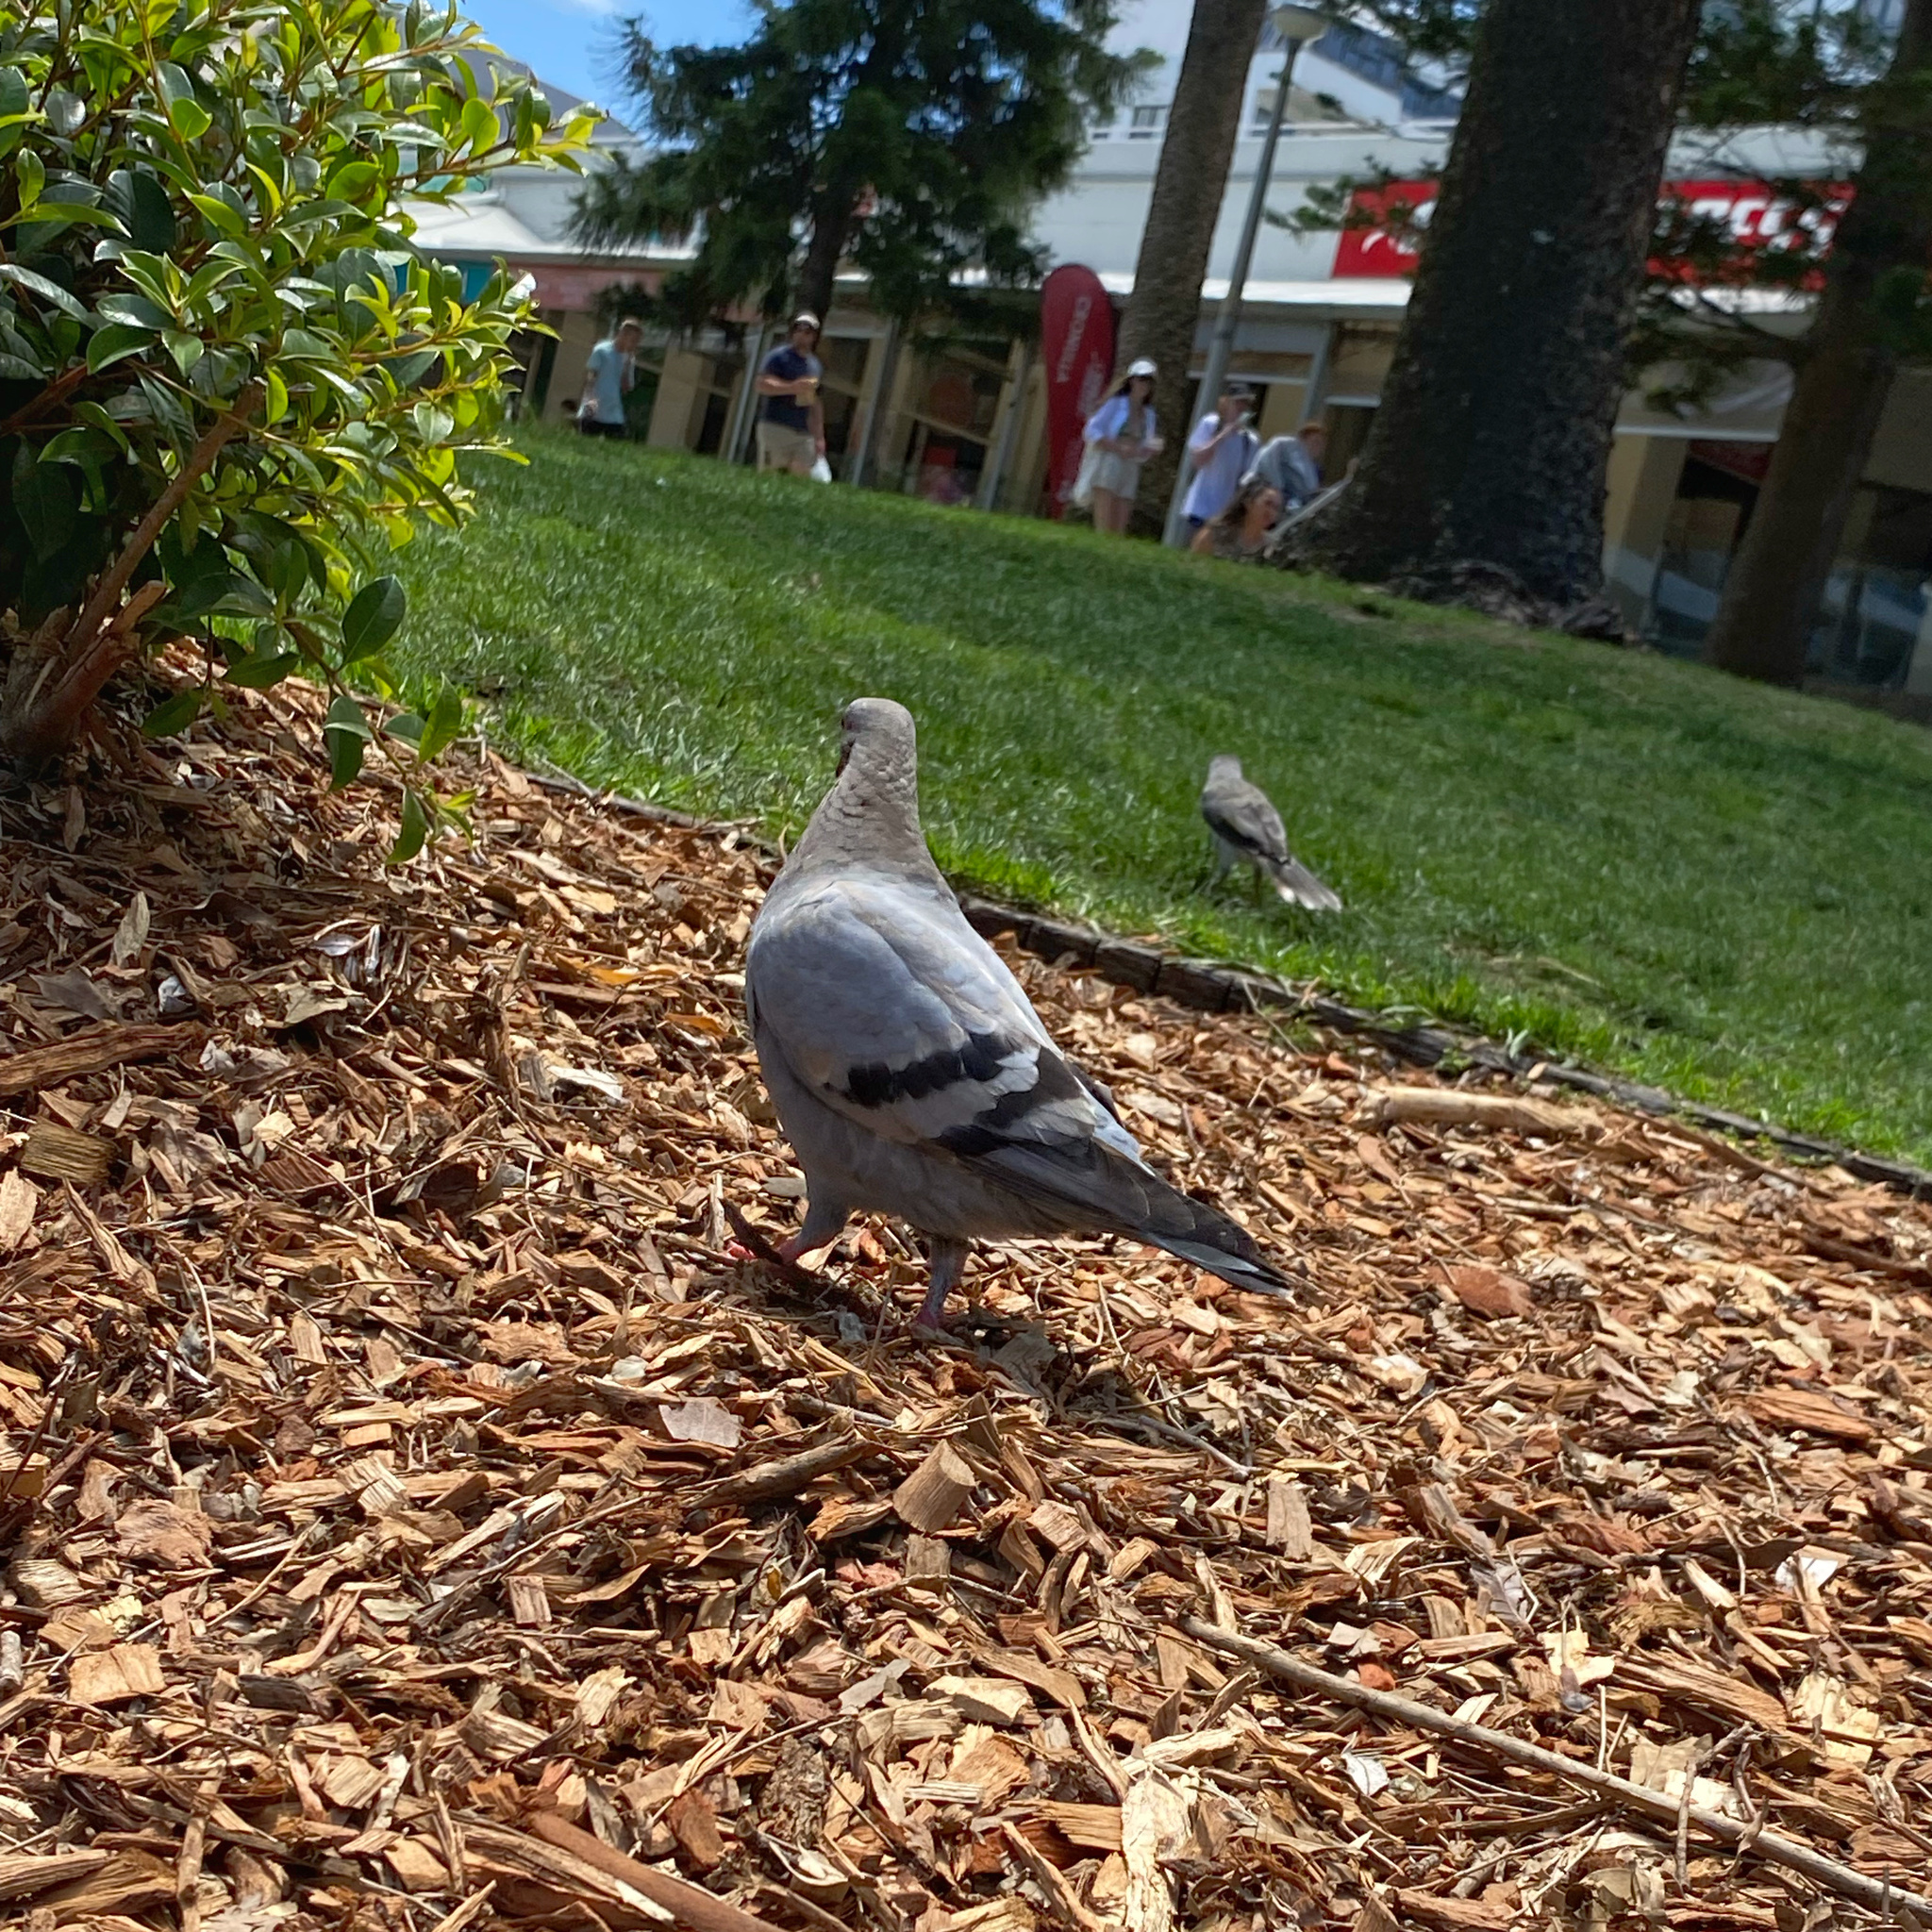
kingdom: Animalia
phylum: Chordata
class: Aves
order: Columbiformes
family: Columbidae
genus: Columba
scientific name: Columba livia
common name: Rock pigeon
